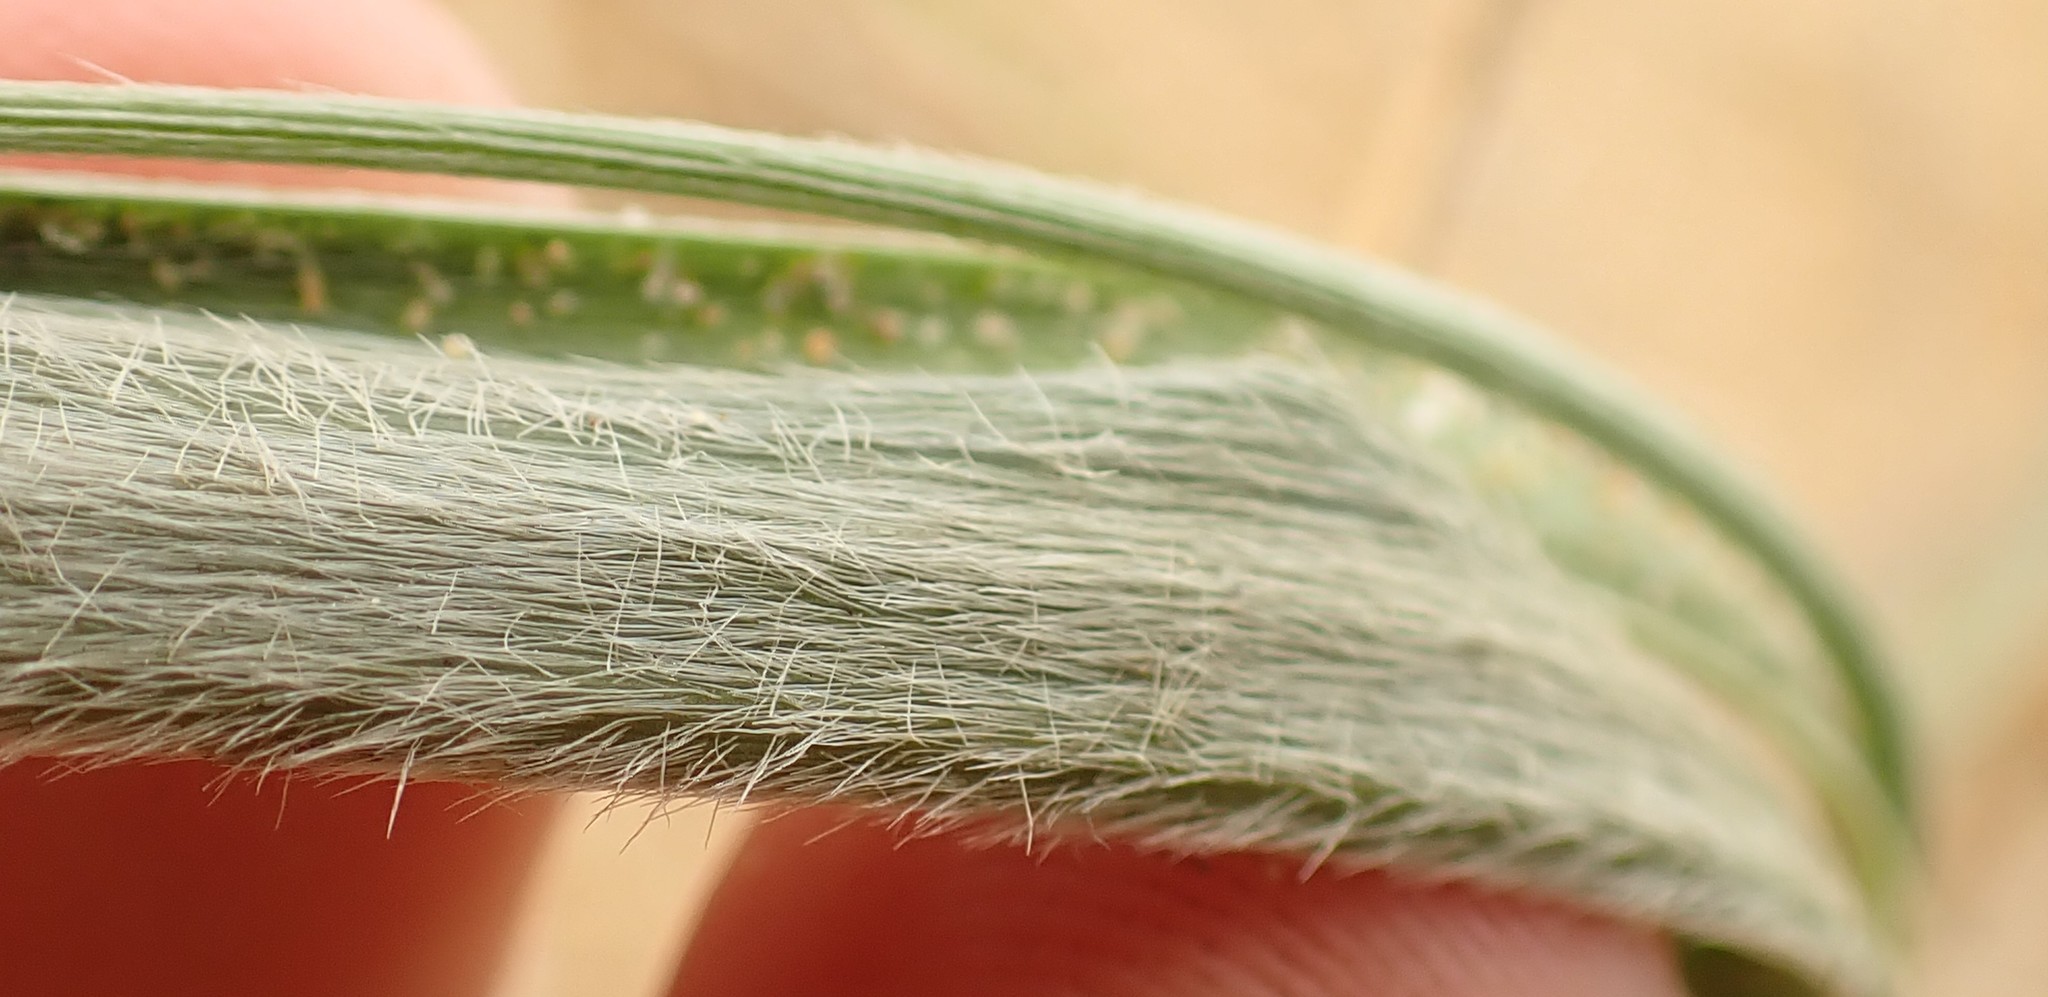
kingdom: Plantae
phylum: Tracheophyta
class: Liliopsida
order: Poales
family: Poaceae
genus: Spinifex
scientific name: Spinifex sericeus
